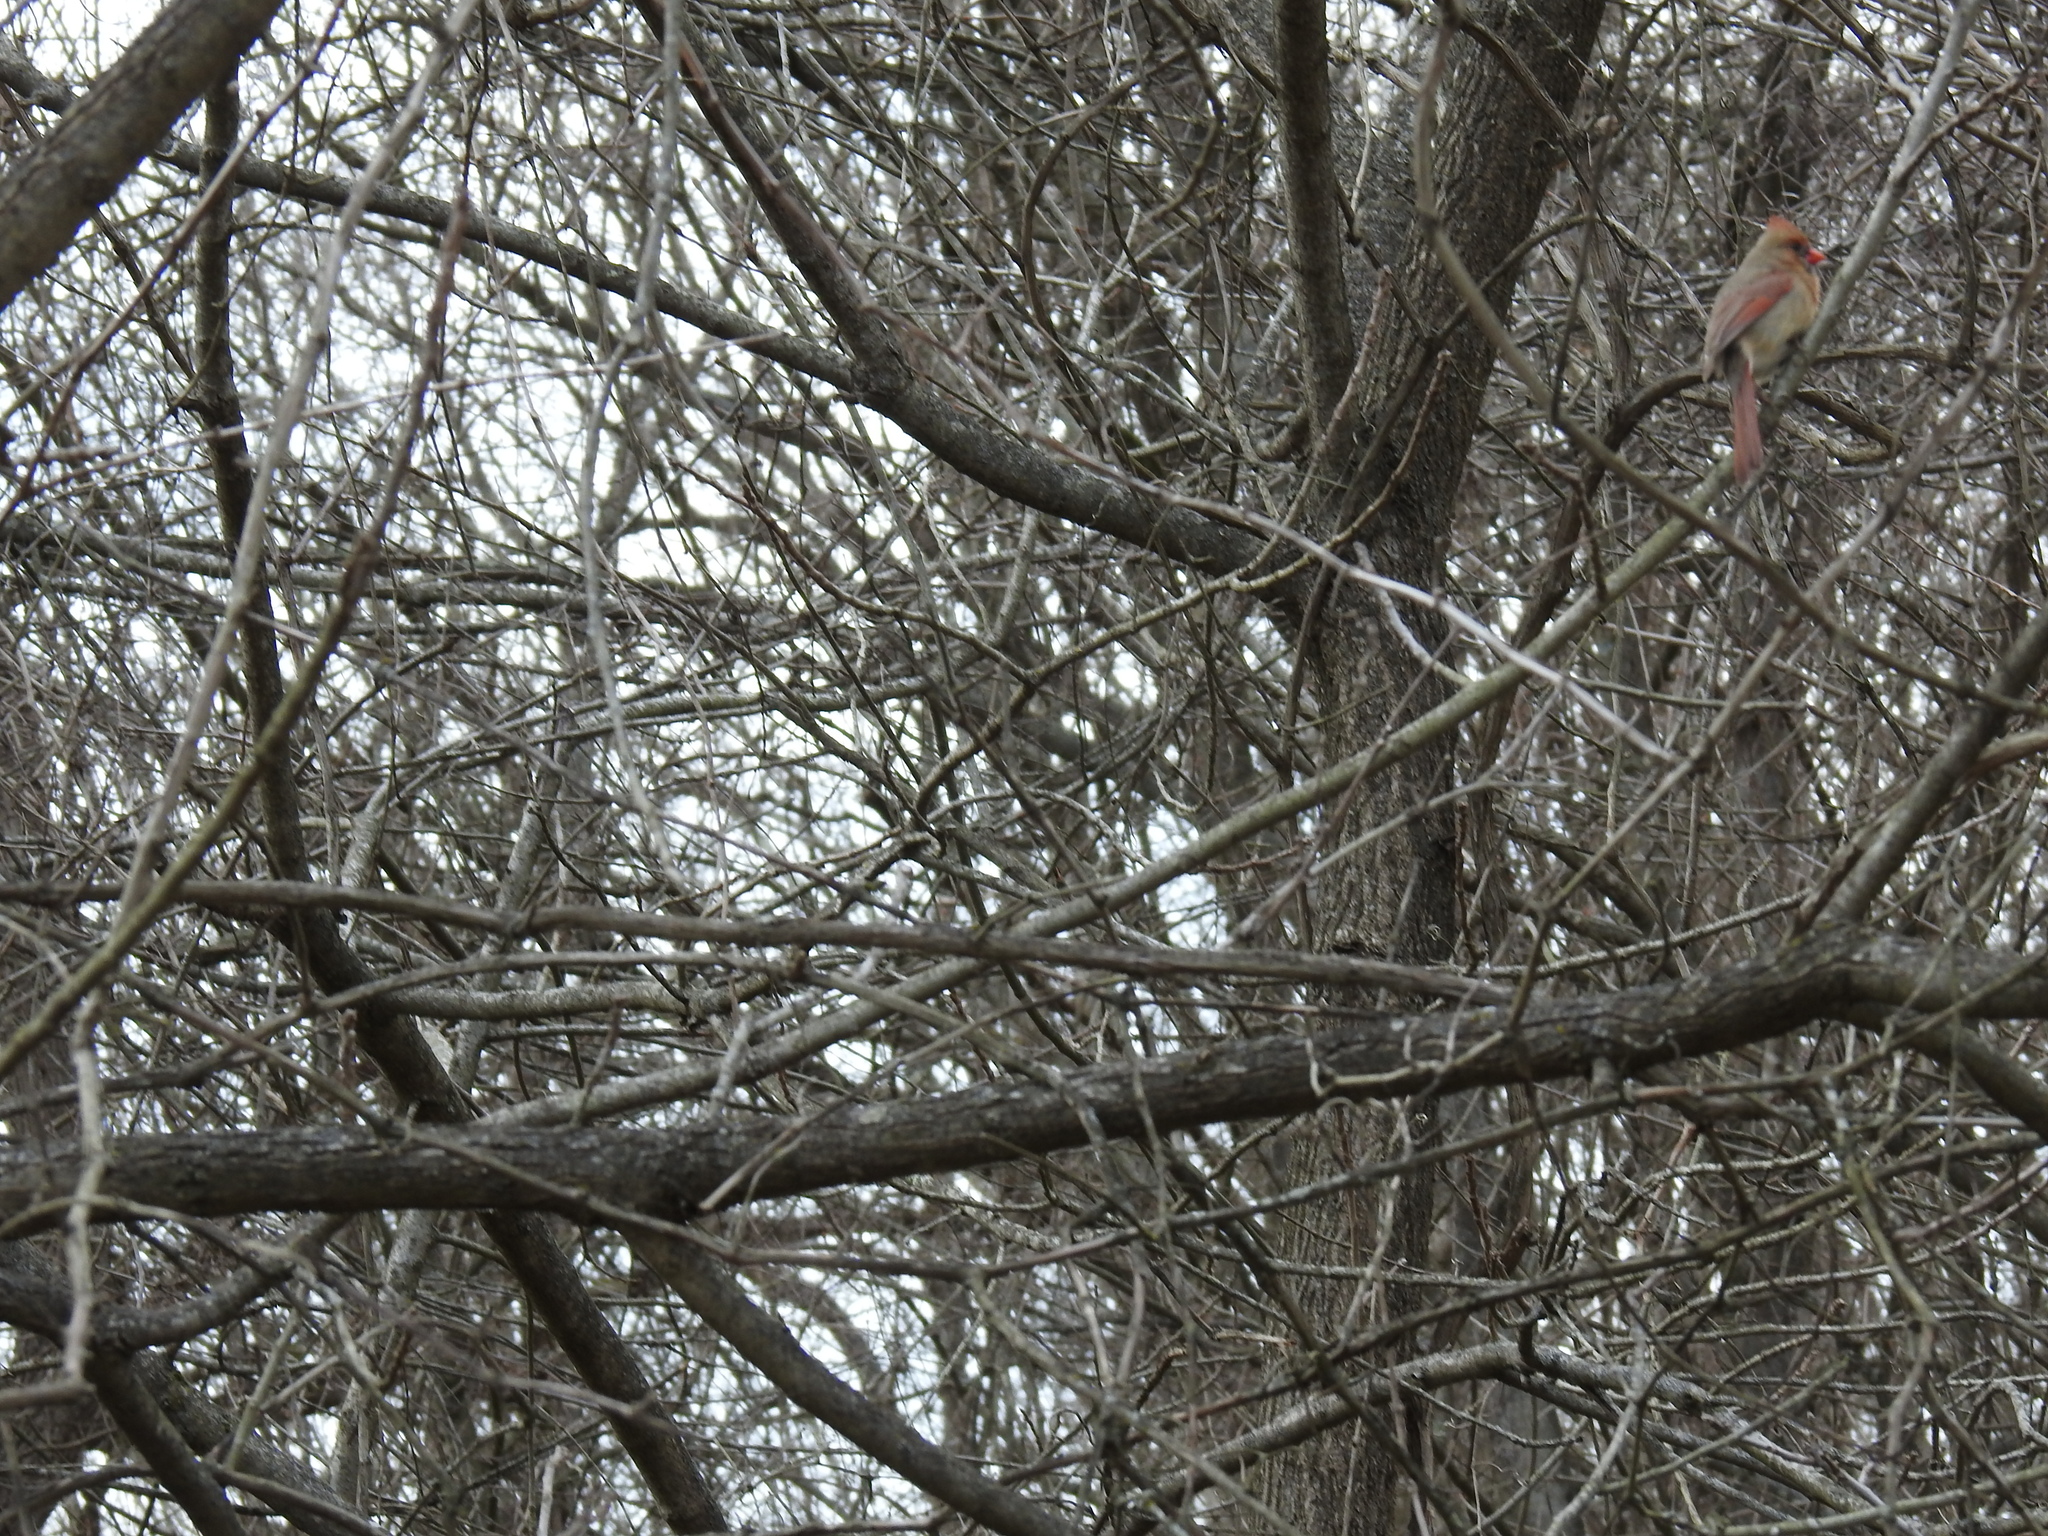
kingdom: Animalia
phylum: Chordata
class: Aves
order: Passeriformes
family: Cardinalidae
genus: Cardinalis
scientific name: Cardinalis cardinalis
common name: Northern cardinal
